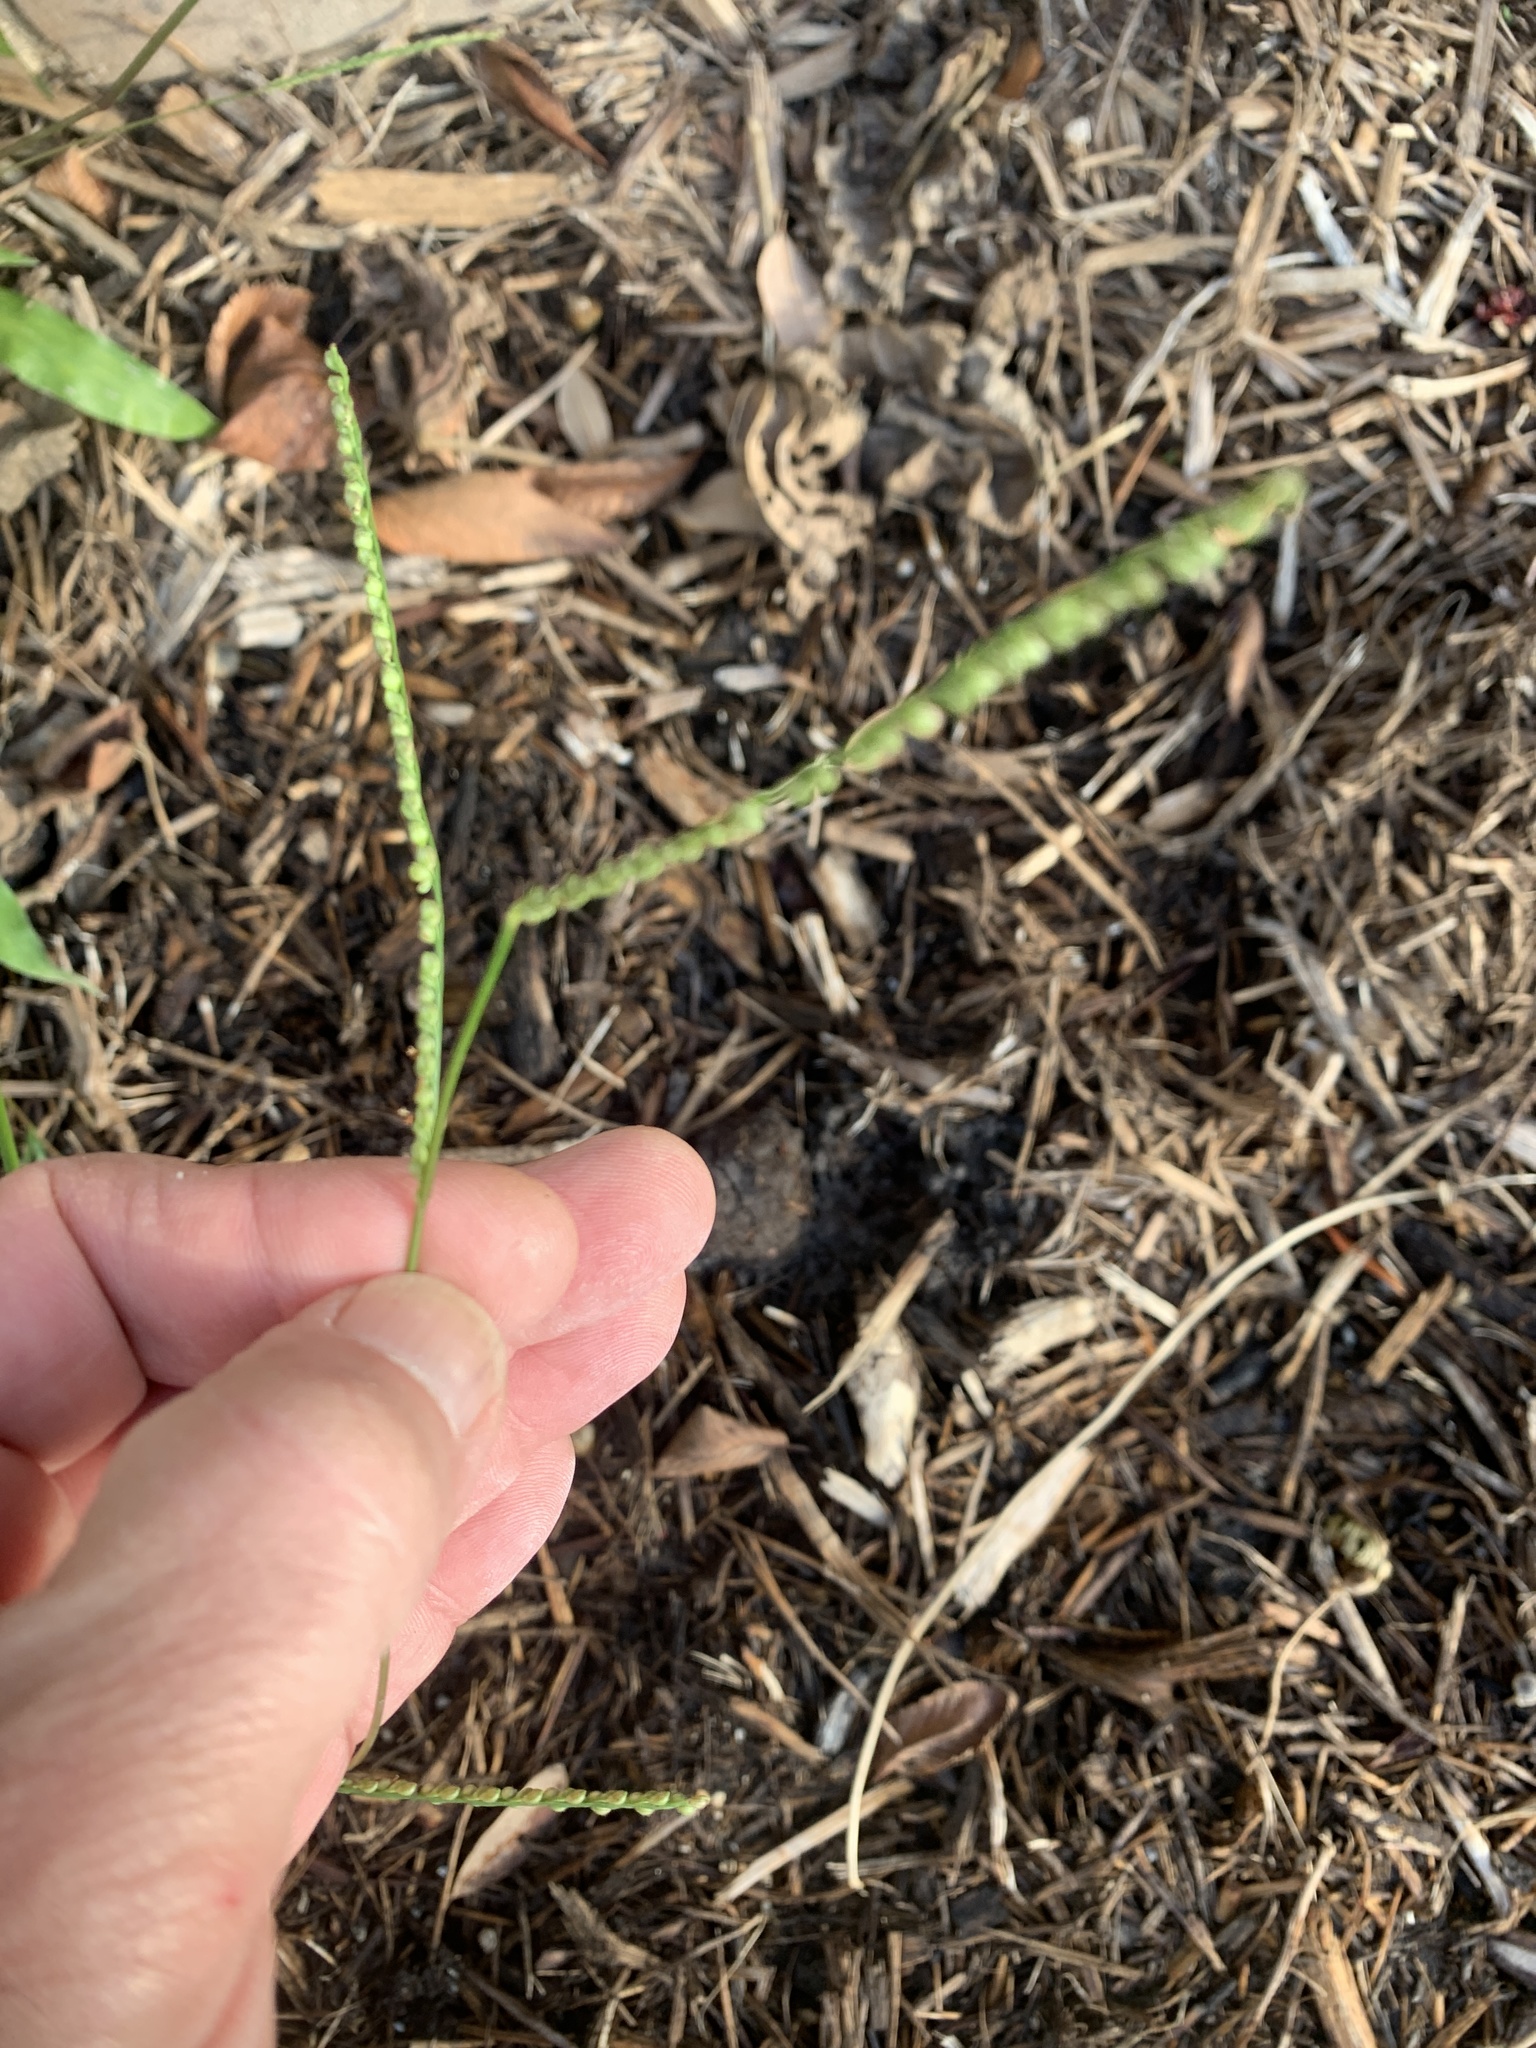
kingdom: Plantae
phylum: Tracheophyta
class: Liliopsida
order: Poales
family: Poaceae
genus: Paspalum
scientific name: Paspalum langei
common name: Rusty-seed paspalum
